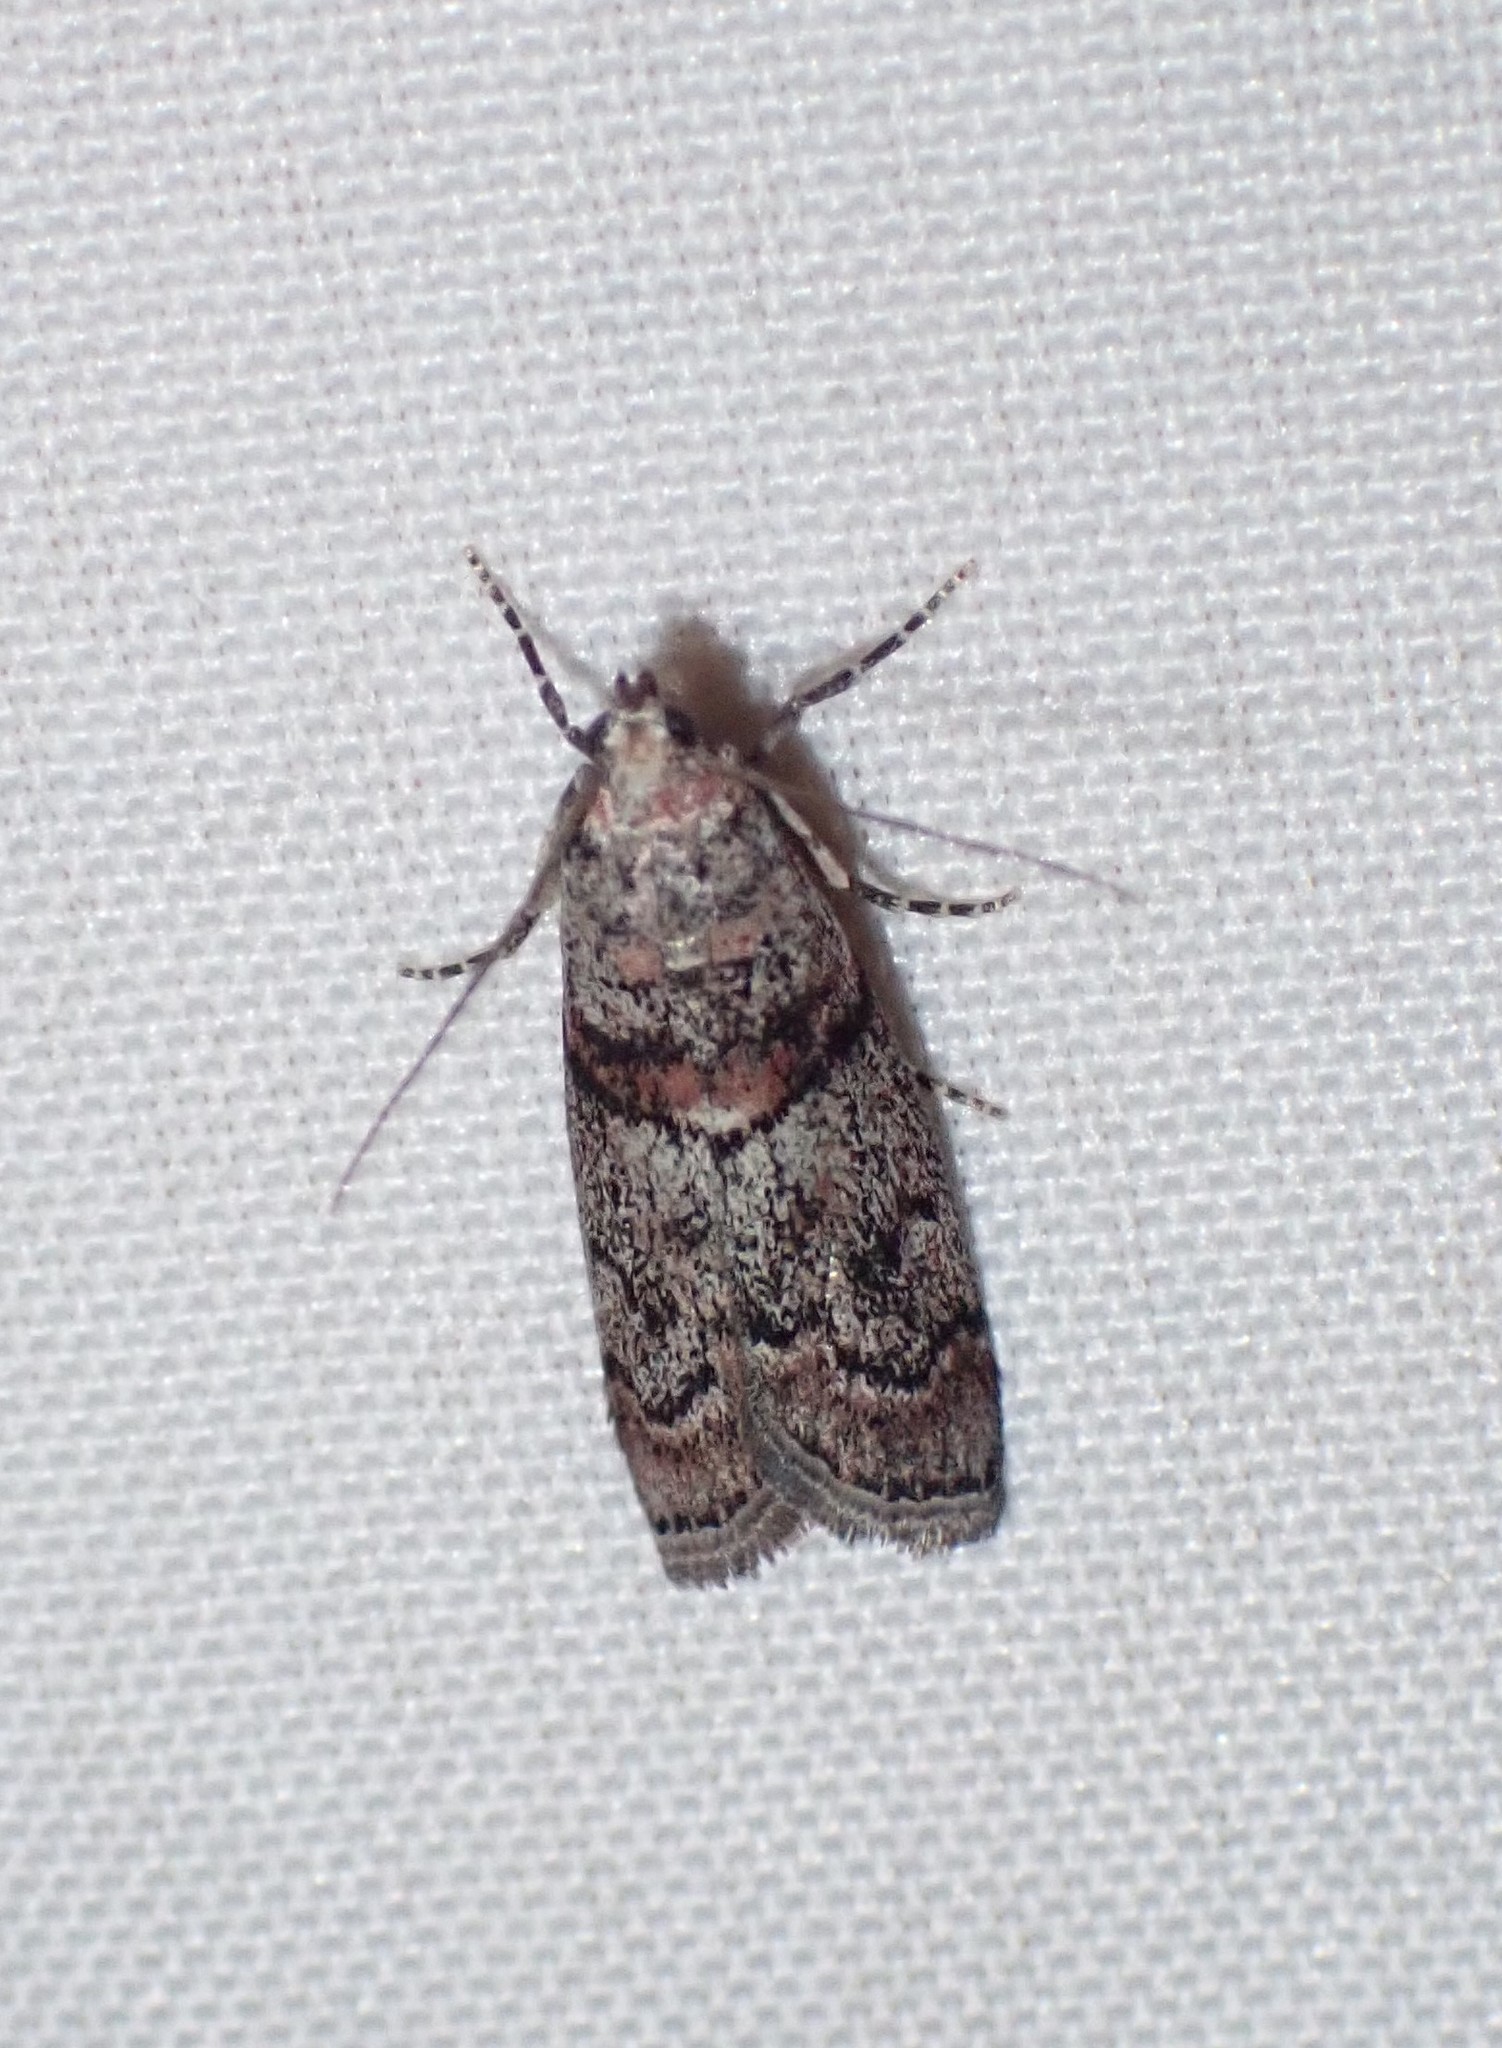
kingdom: Animalia
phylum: Arthropoda
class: Insecta
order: Lepidoptera
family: Pyralidae
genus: Promylea
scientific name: Promylea lunigerella
